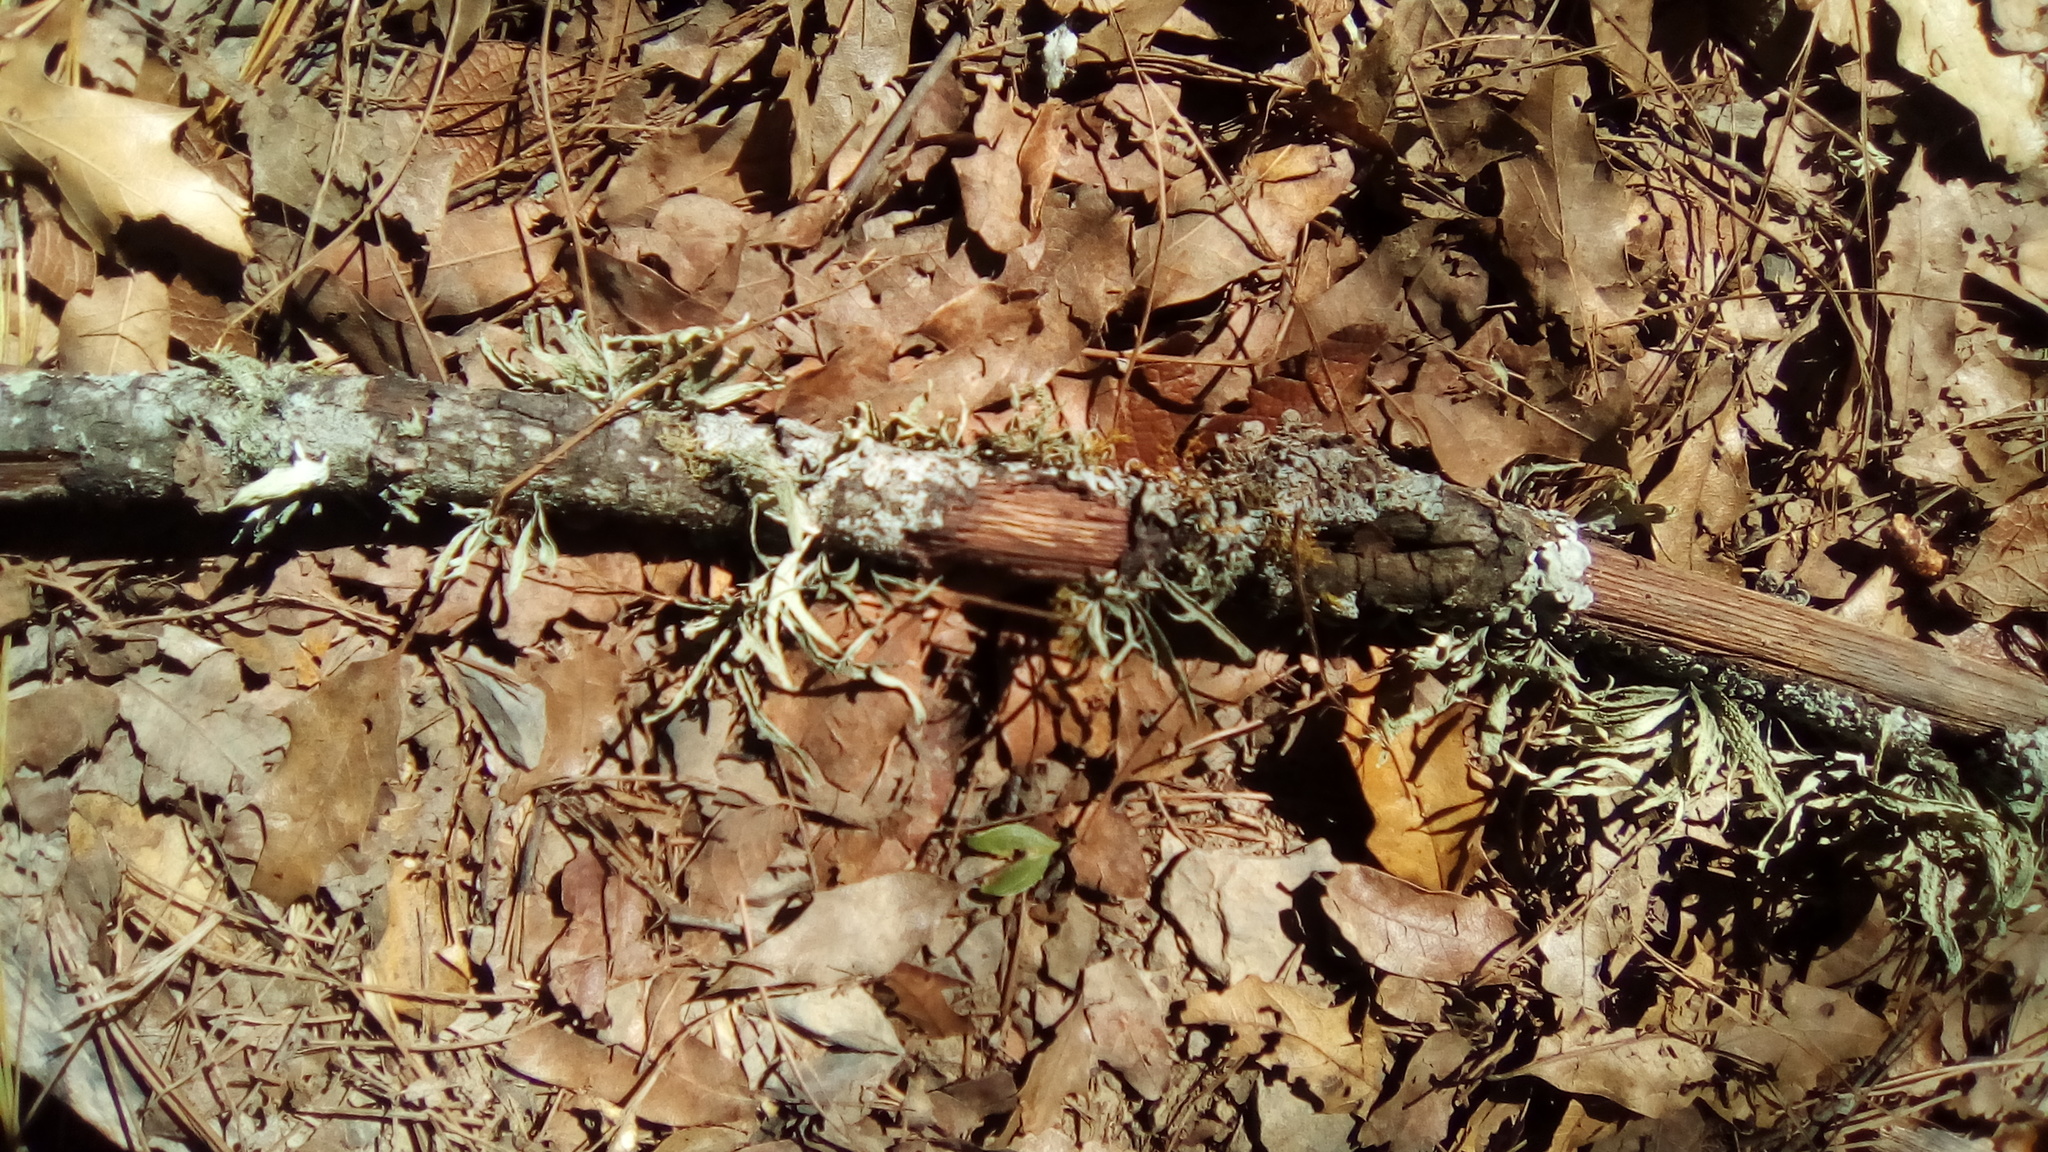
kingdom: Fungi
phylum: Ascomycota
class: Lecanoromycetes
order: Lecanorales
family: Ramalinaceae
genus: Ramalina
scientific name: Ramalina celastri
